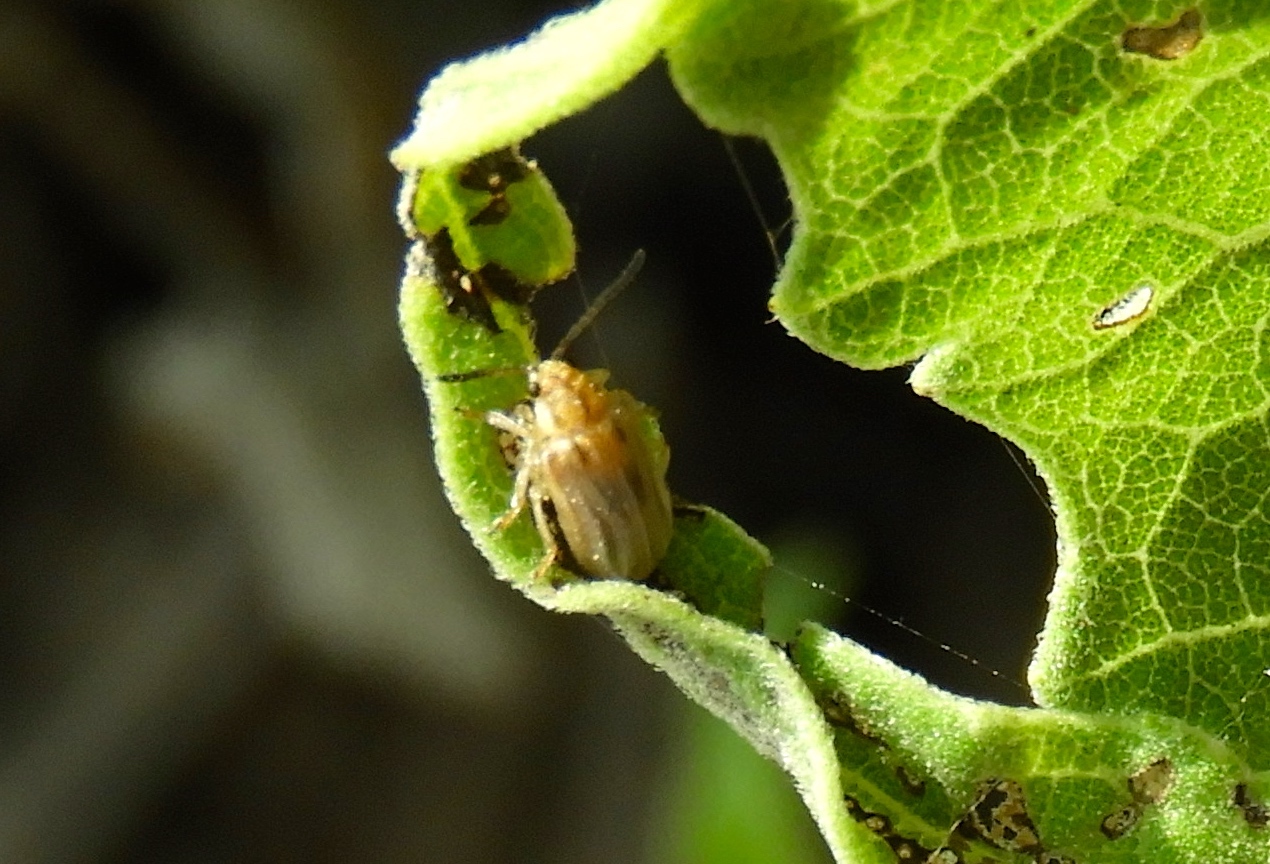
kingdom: Animalia
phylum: Arthropoda
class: Insecta
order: Coleoptera
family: Chrysomelidae
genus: Ophraella
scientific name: Ophraella communa
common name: Ragweed leaf beetle
